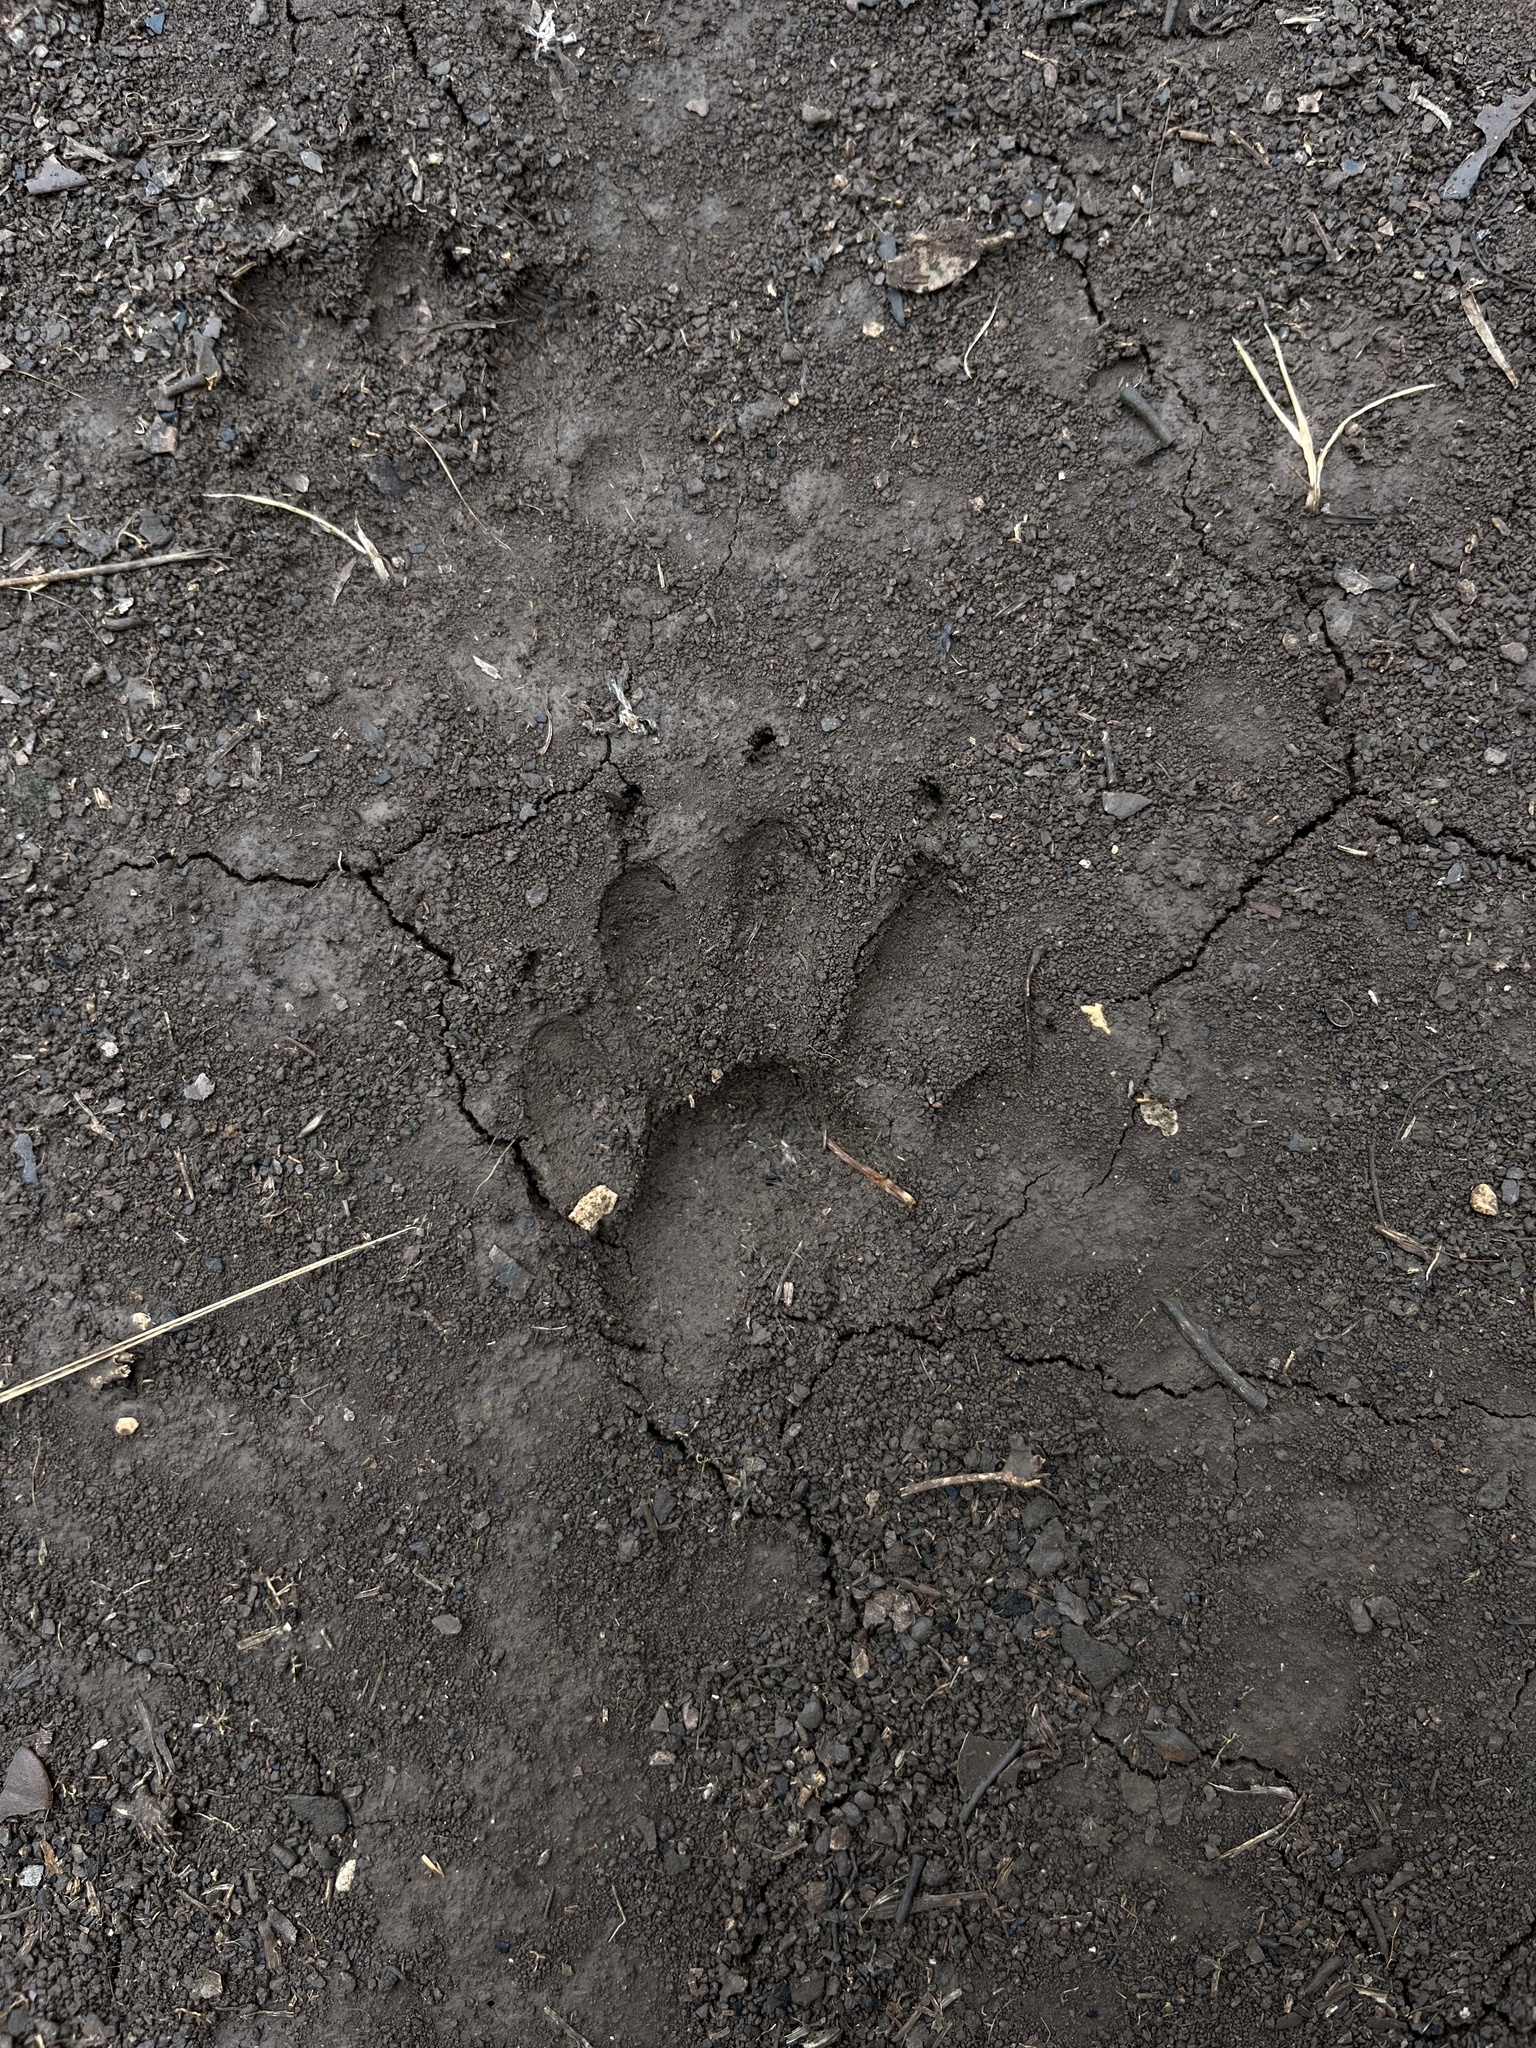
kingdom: Animalia
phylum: Chordata
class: Mammalia
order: Carnivora
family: Procyonidae
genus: Procyon
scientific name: Procyon lotor
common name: Raccoon
